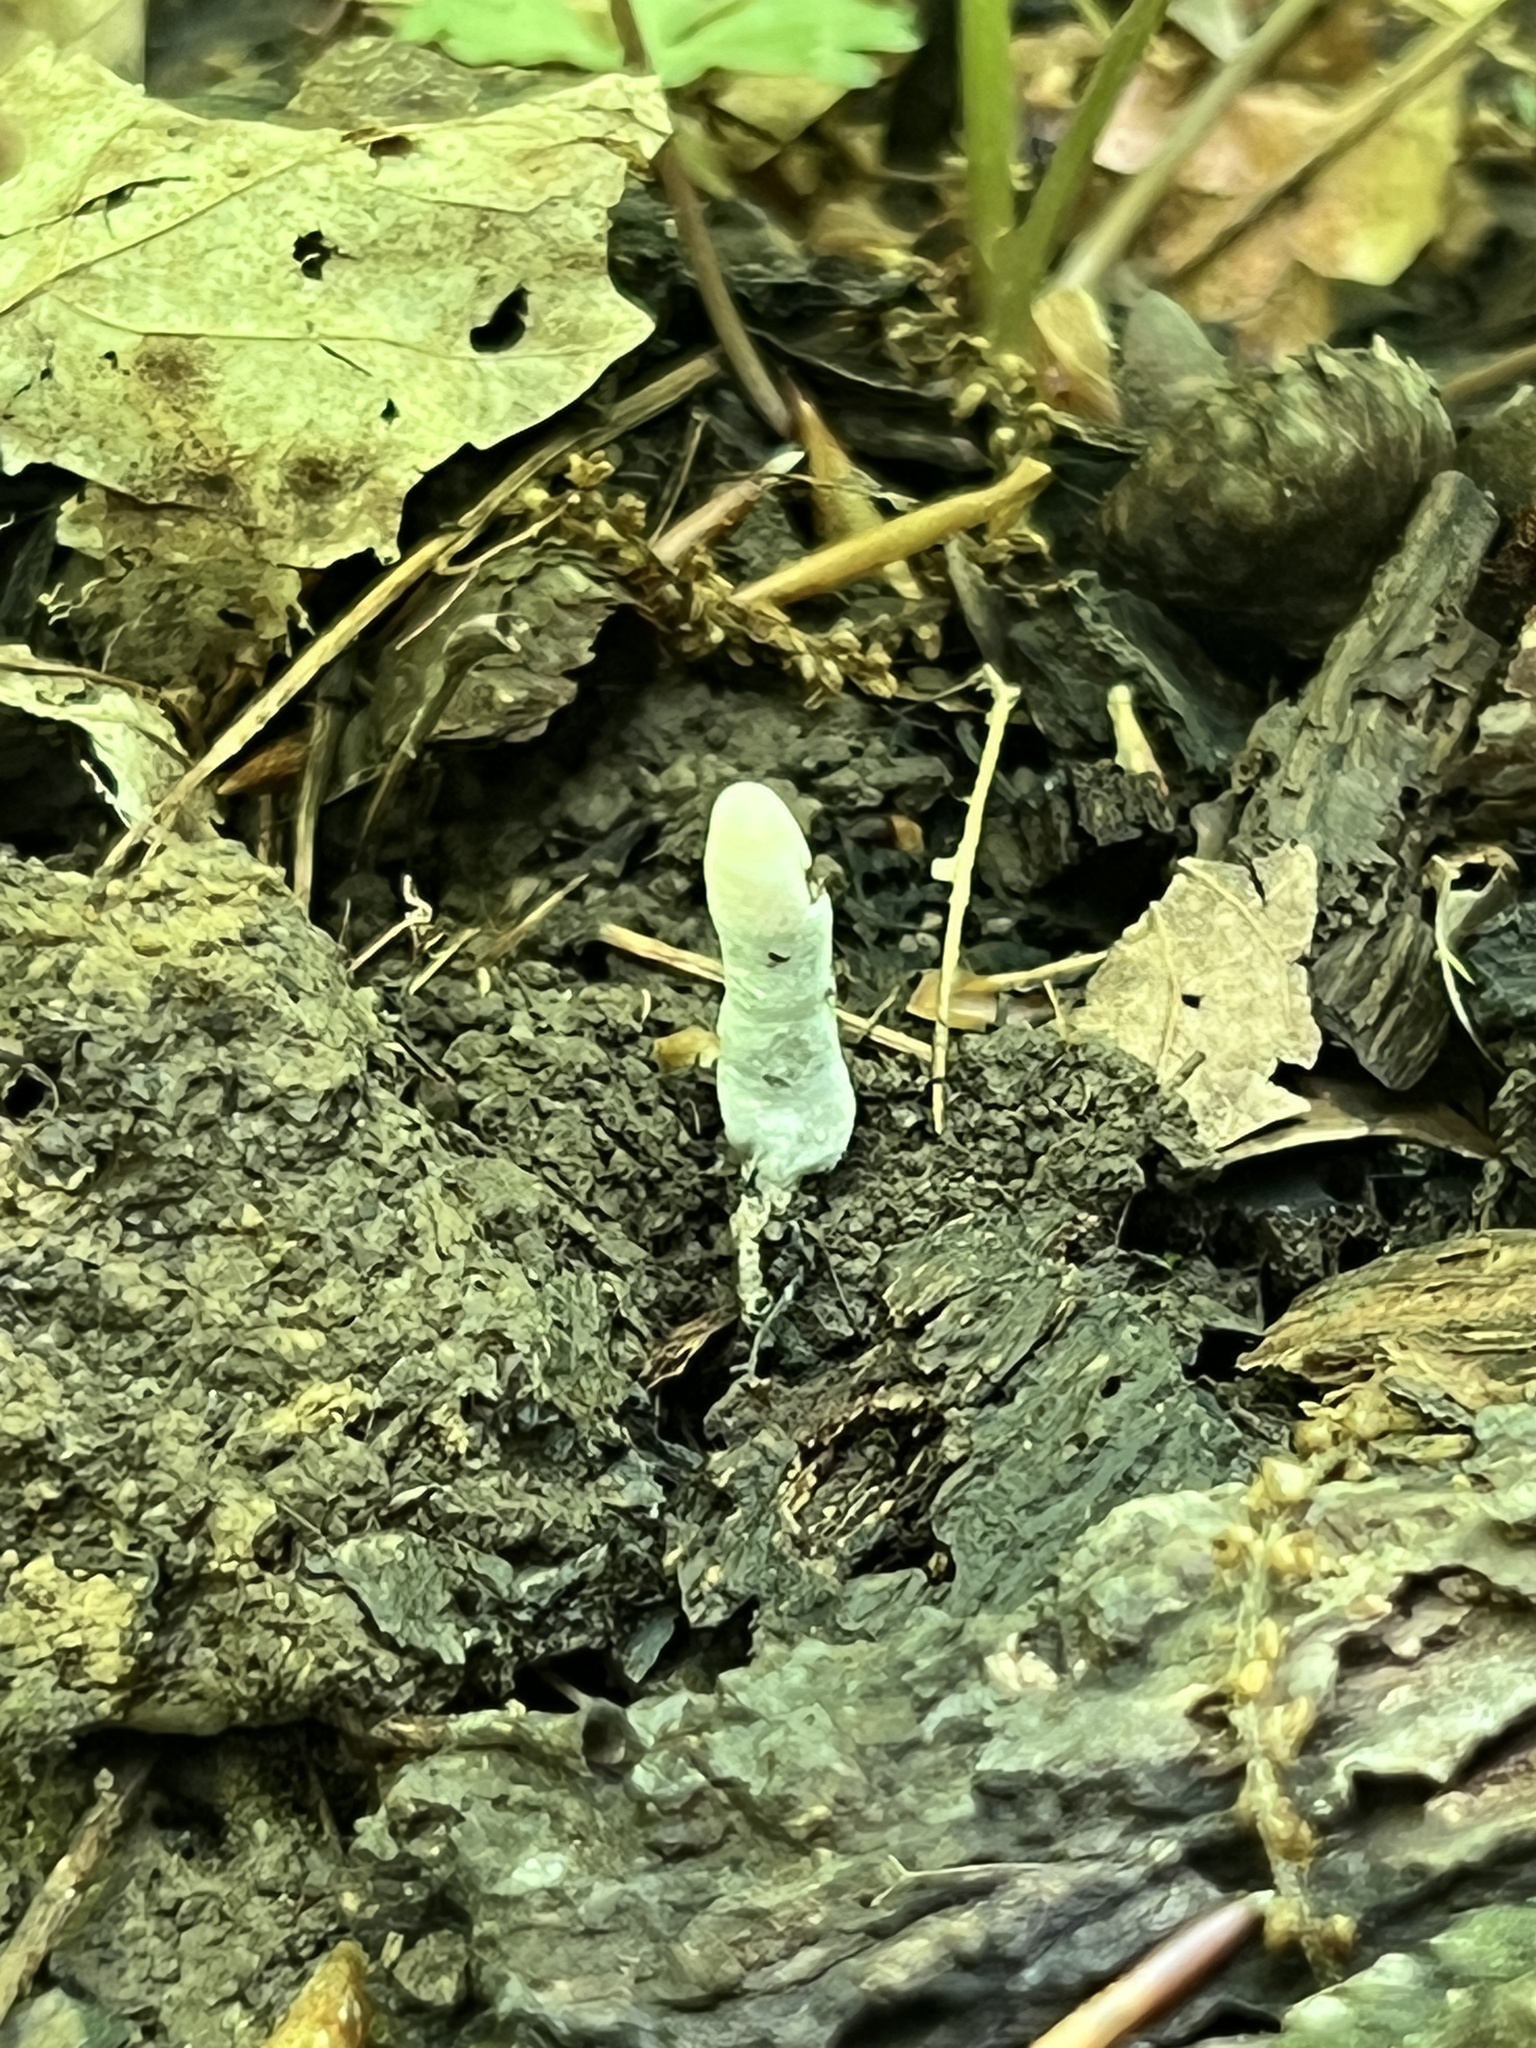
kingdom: Fungi
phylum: Ascomycota
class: Sordariomycetes
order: Xylariales
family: Xylariaceae
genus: Xylaria
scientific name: Xylaria polymorpha
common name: Dead man's fingers
